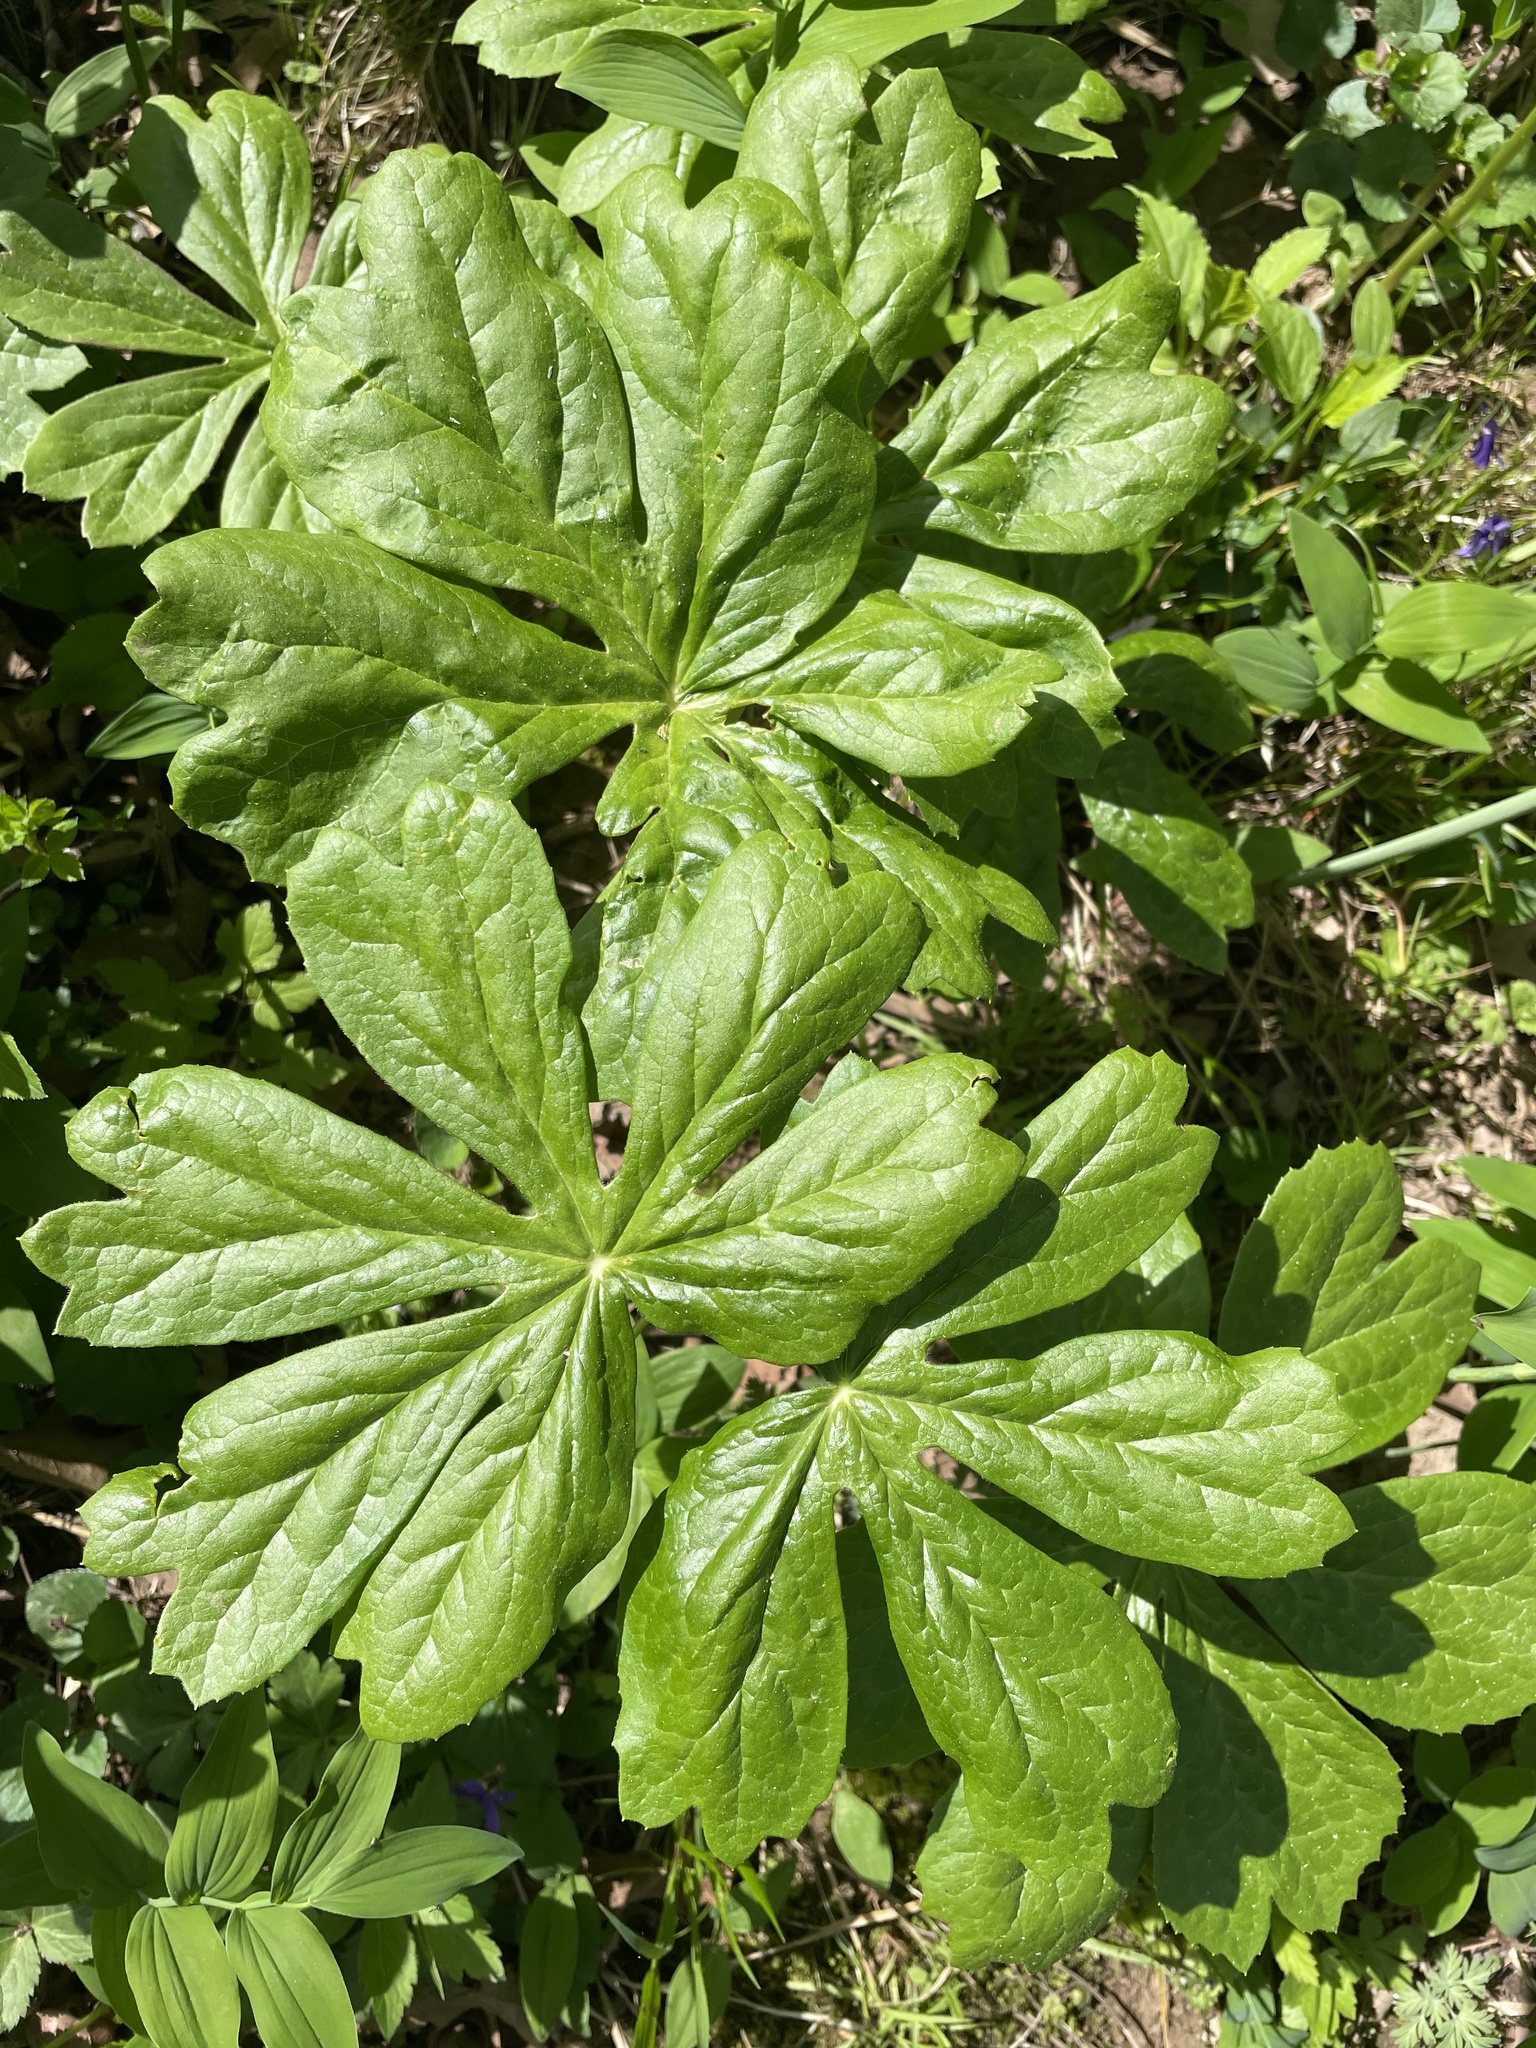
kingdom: Plantae
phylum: Tracheophyta
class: Magnoliopsida
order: Ranunculales
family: Berberidaceae
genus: Podophyllum
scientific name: Podophyllum peltatum
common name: Wild mandrake
